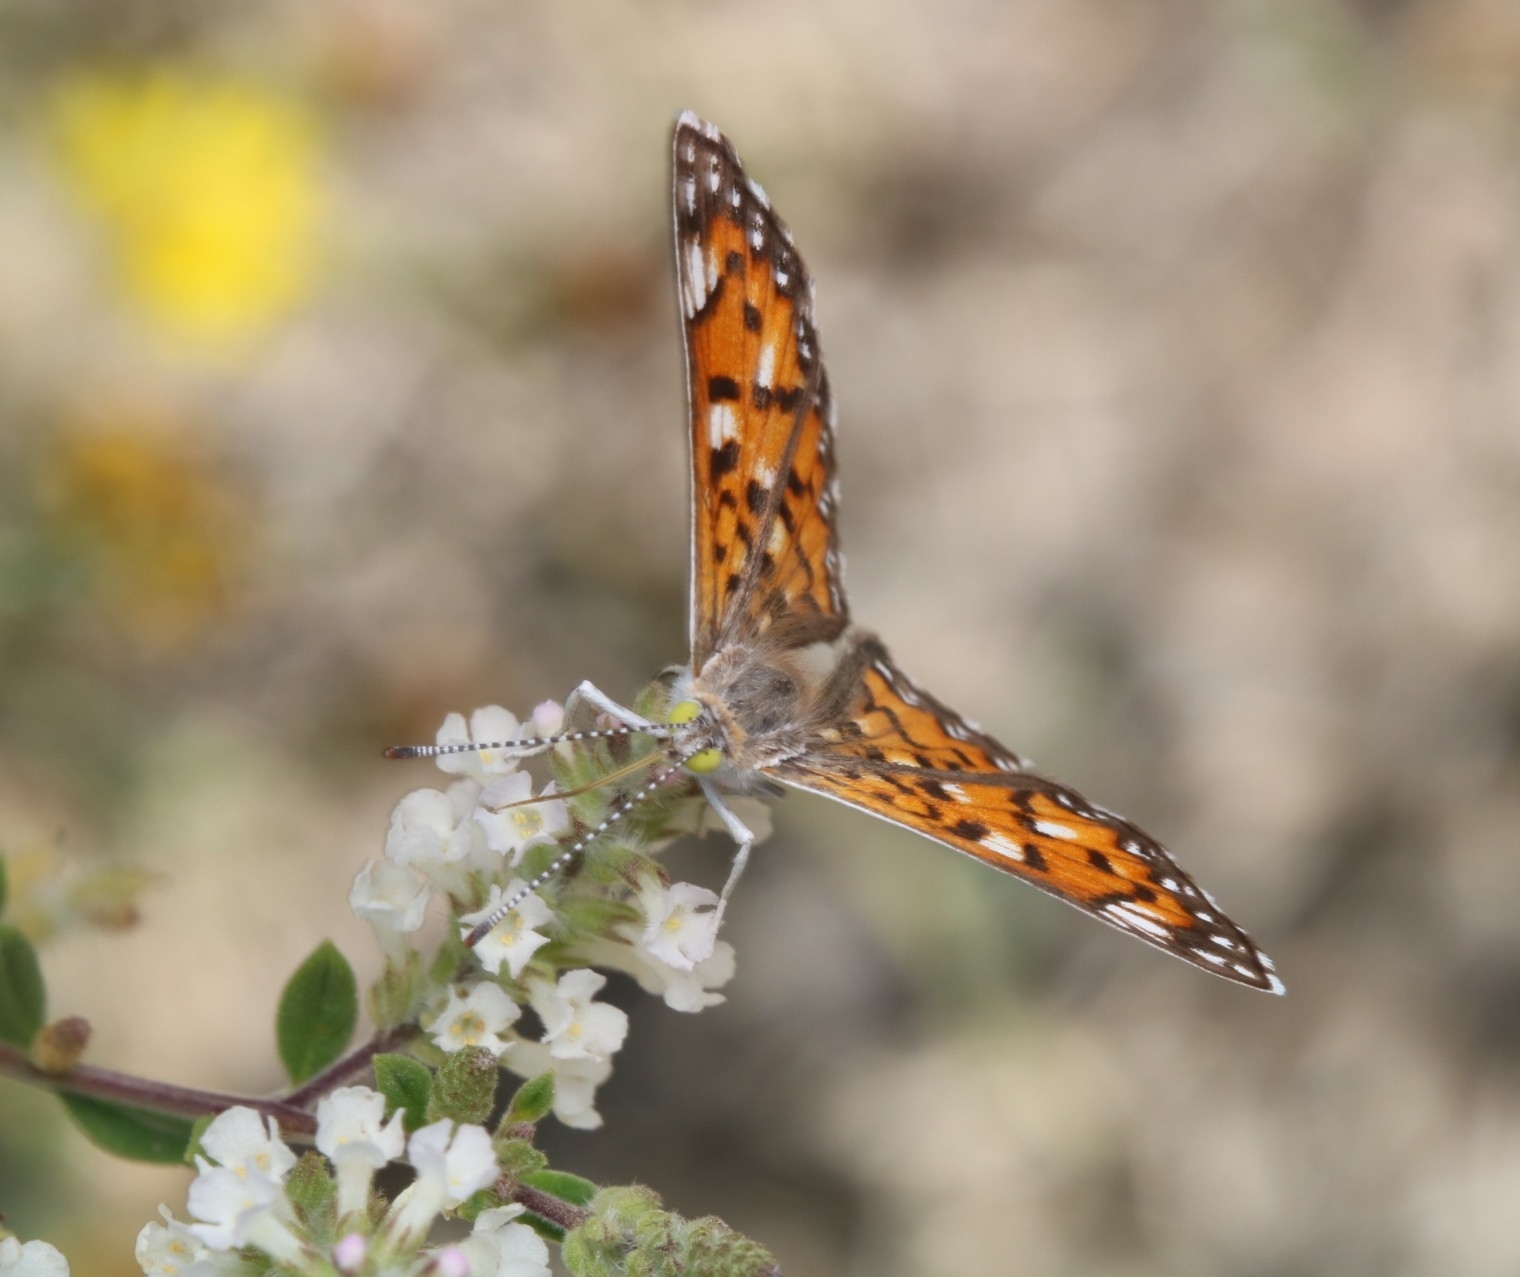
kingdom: Animalia
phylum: Arthropoda
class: Insecta
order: Lepidoptera
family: Riodinidae
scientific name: Riodinidae
